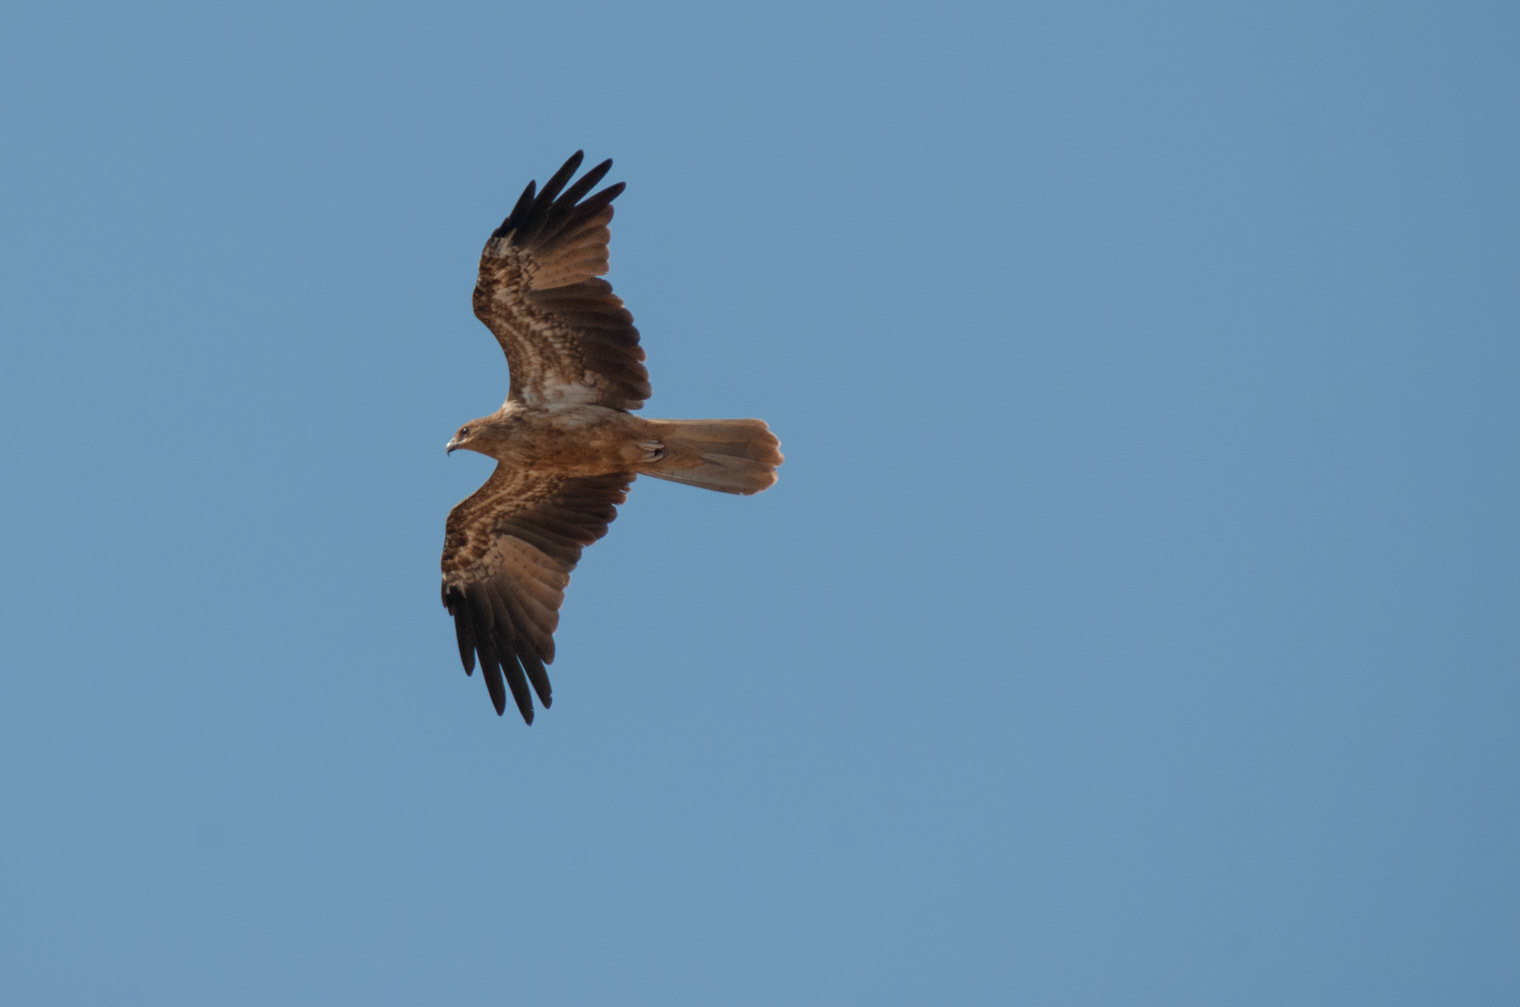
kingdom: Animalia
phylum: Chordata
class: Aves
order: Accipitriformes
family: Accipitridae
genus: Haliastur
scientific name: Haliastur sphenurus
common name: Whistling kite
